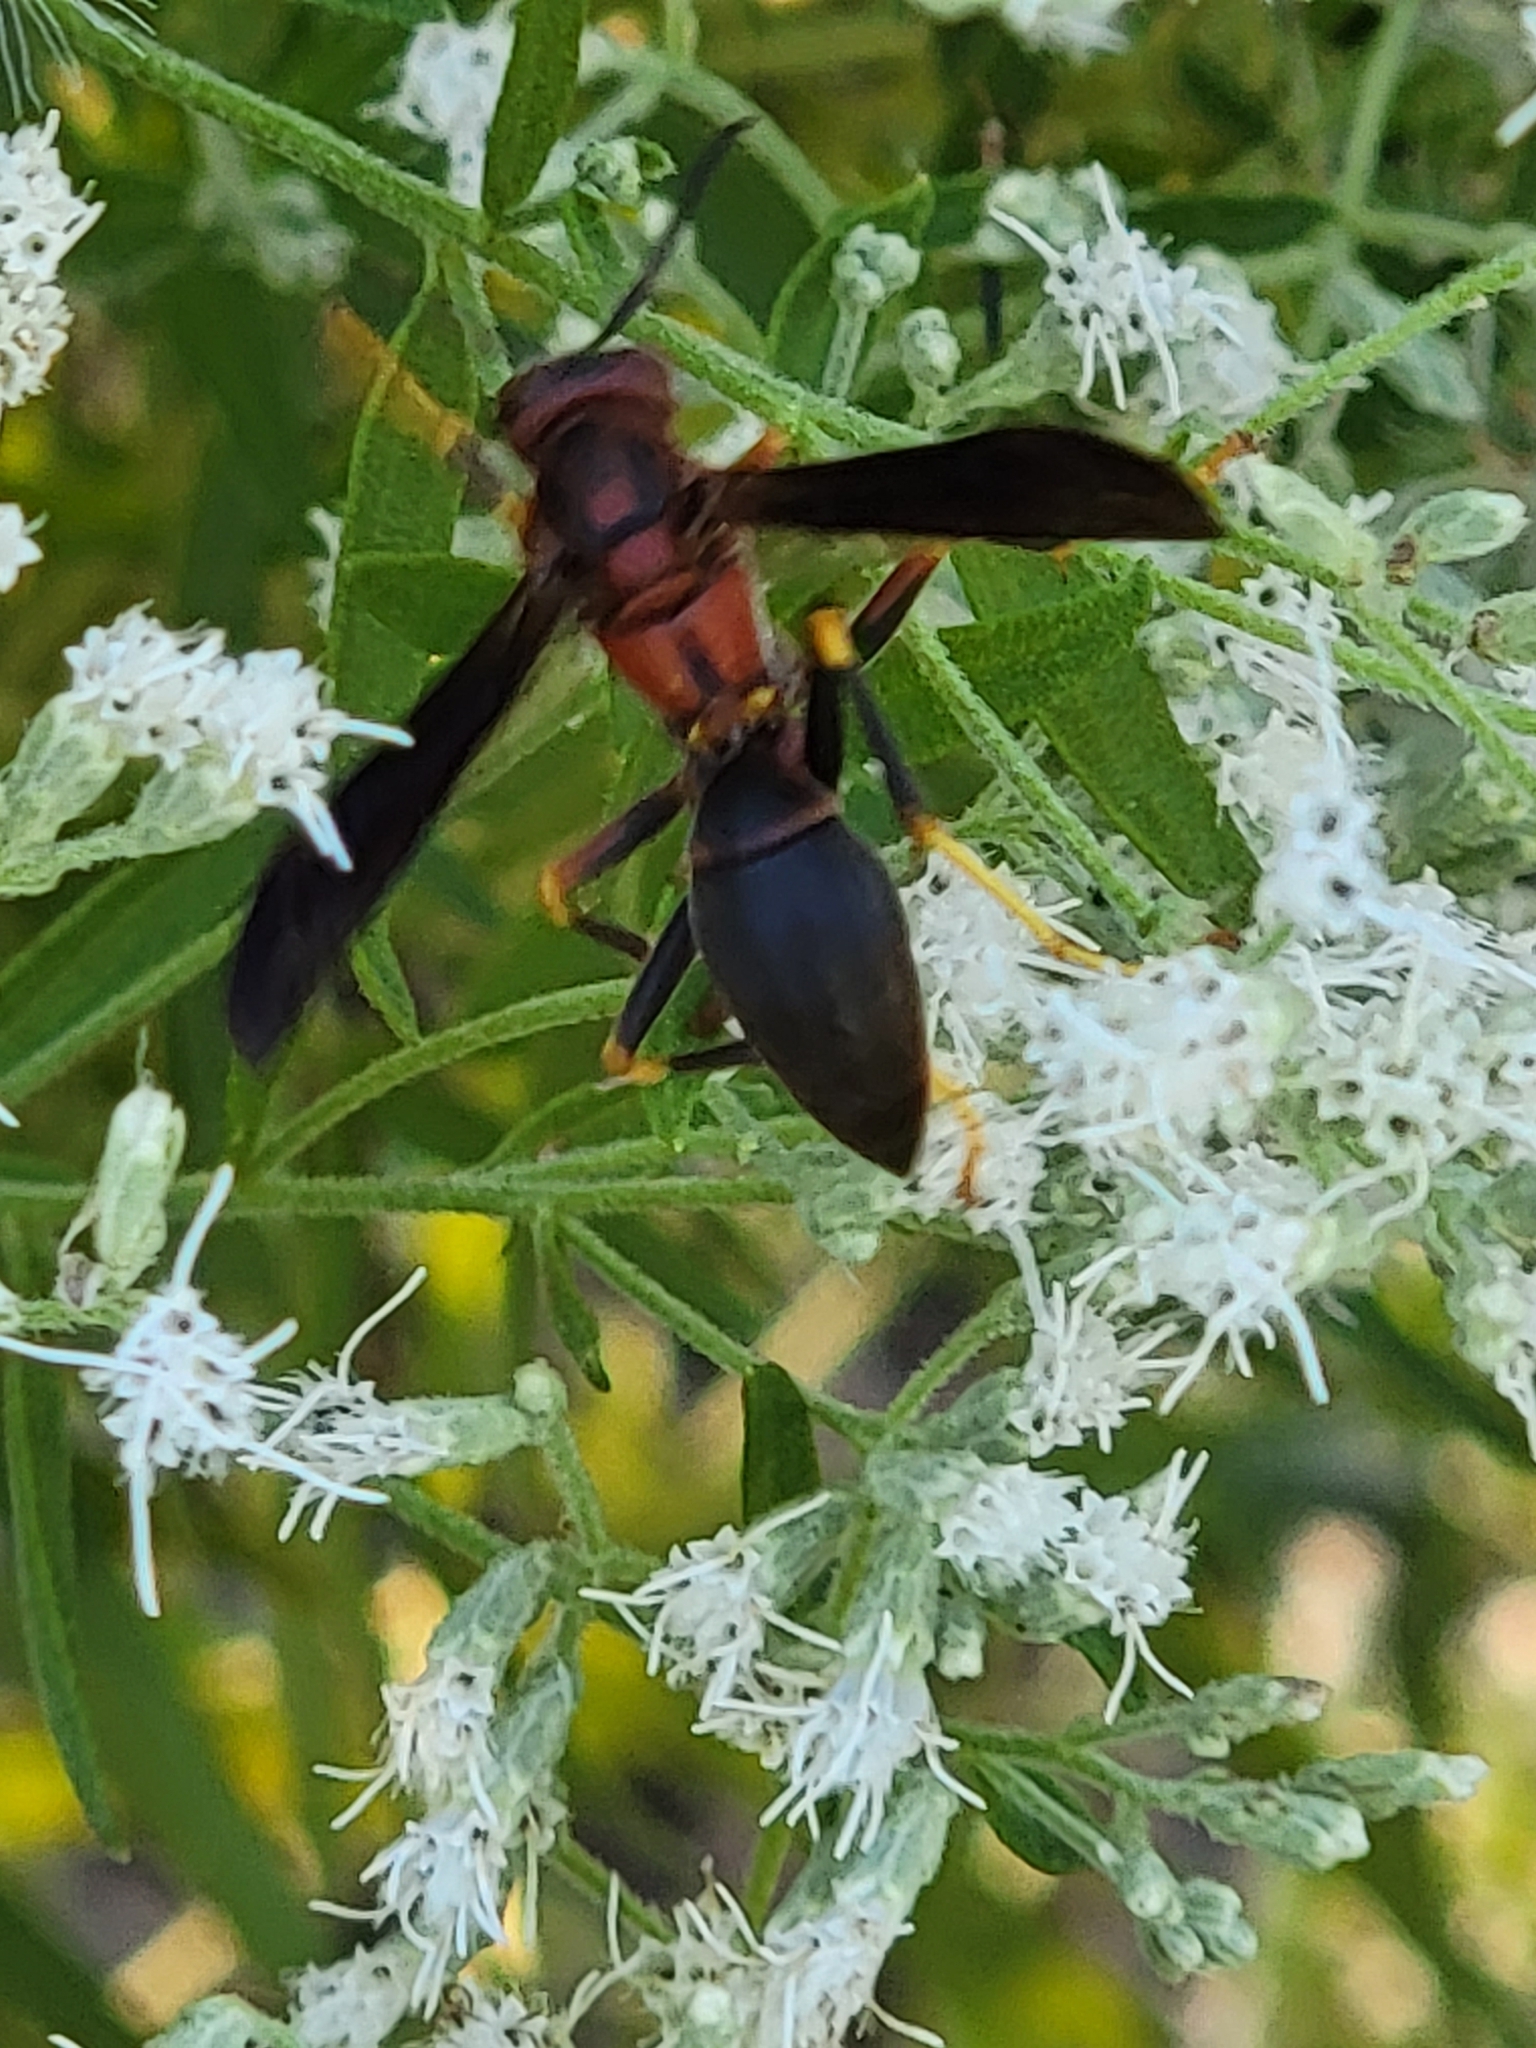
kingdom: Animalia
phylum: Arthropoda
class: Insecta
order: Hymenoptera
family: Eumenidae
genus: Polistes
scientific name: Polistes metricus
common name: Metric paper wasp
